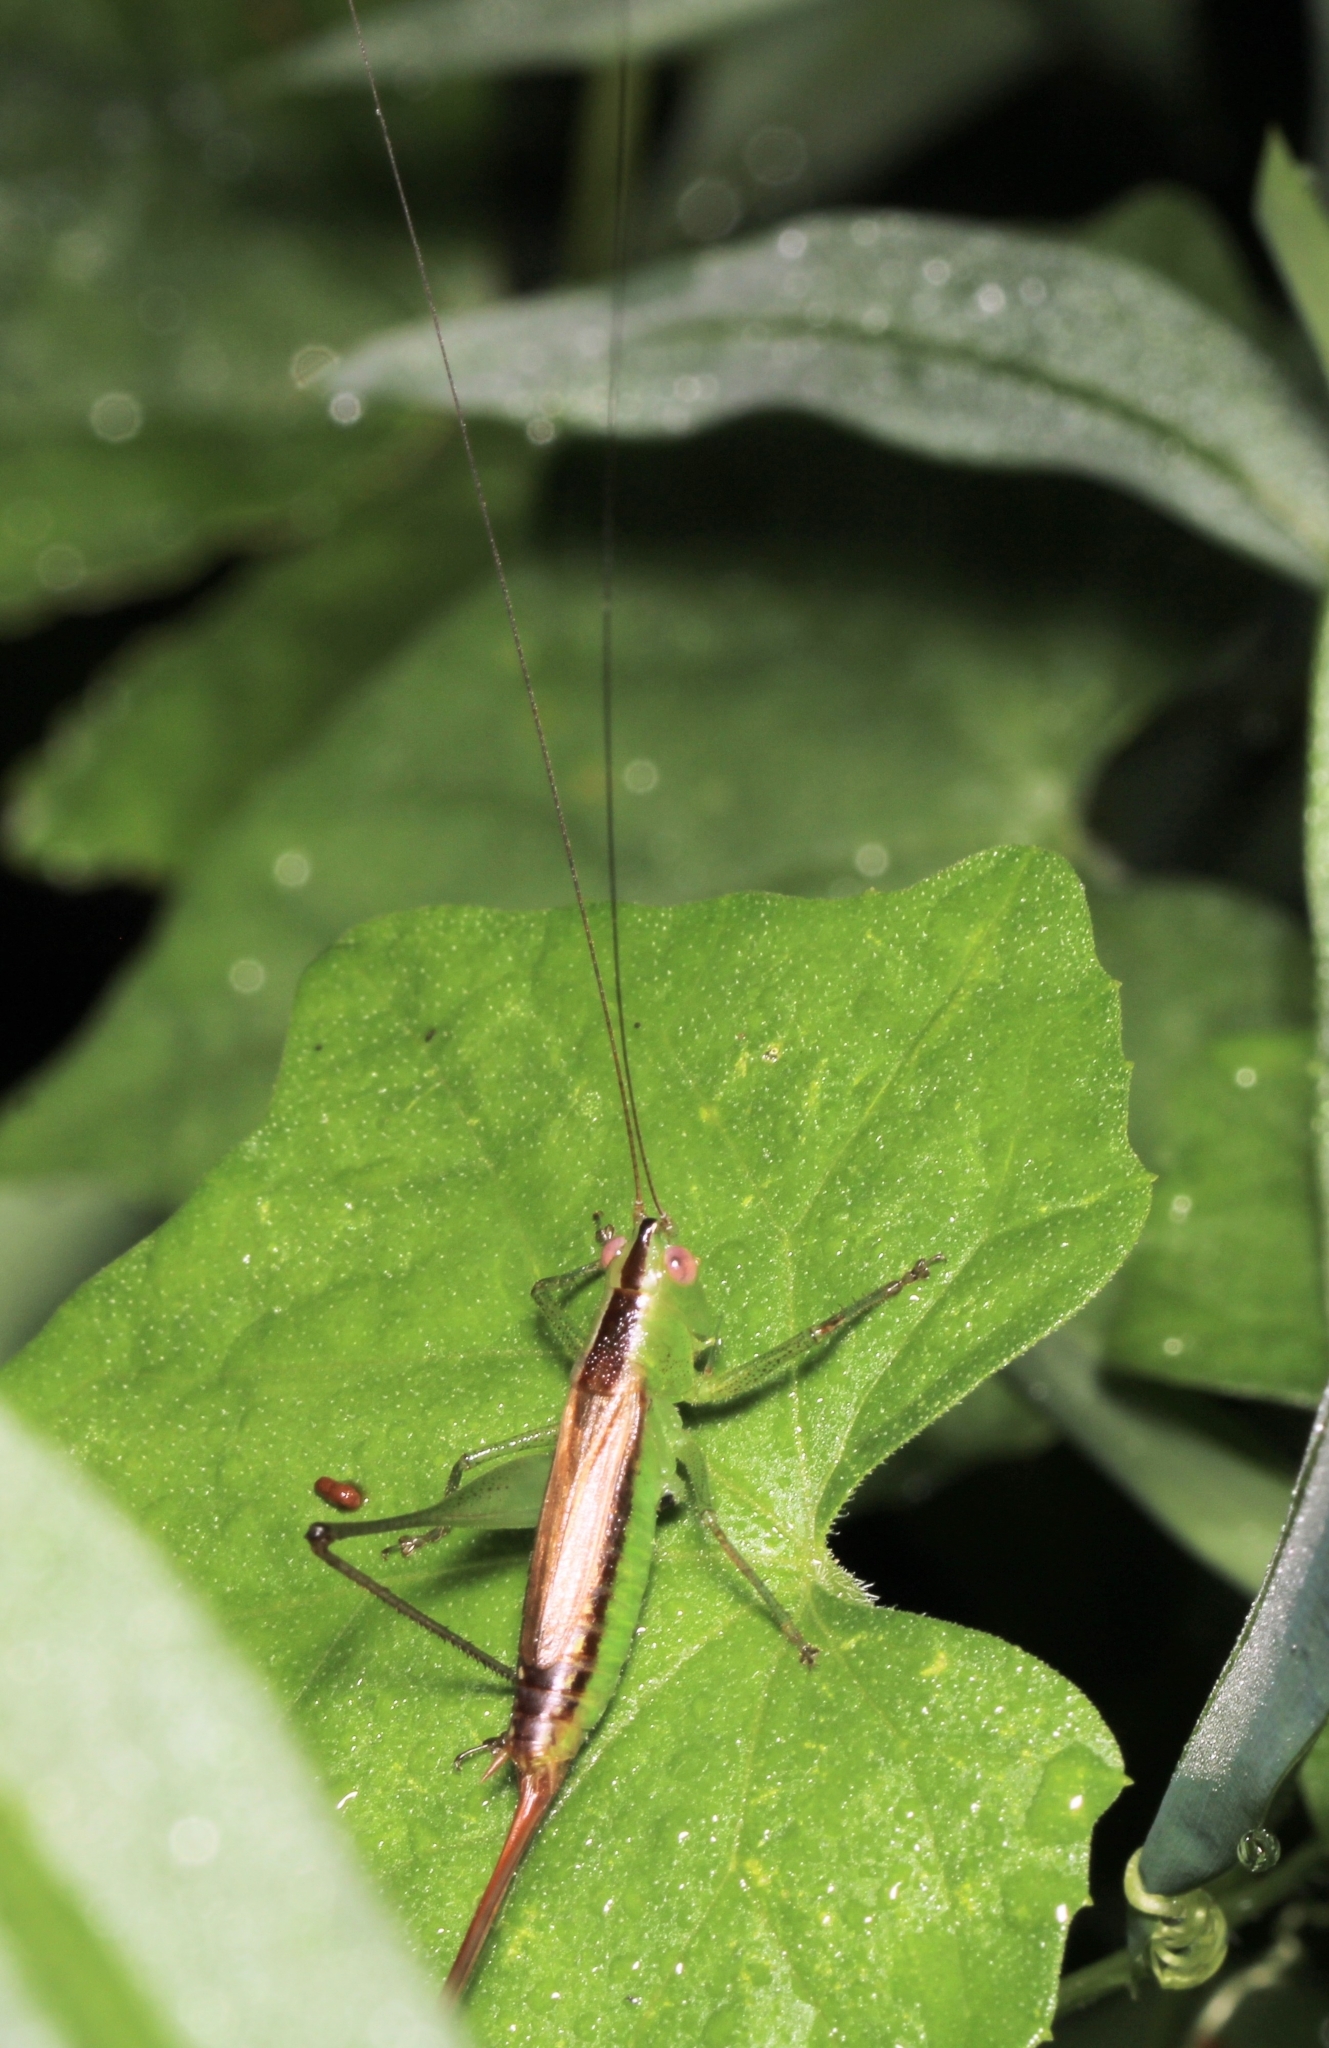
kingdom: Animalia
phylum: Arthropoda
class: Insecta
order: Orthoptera
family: Tettigoniidae
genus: Conocephalus
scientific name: Conocephalus brevipennis
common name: Short-winged meadow katydid
